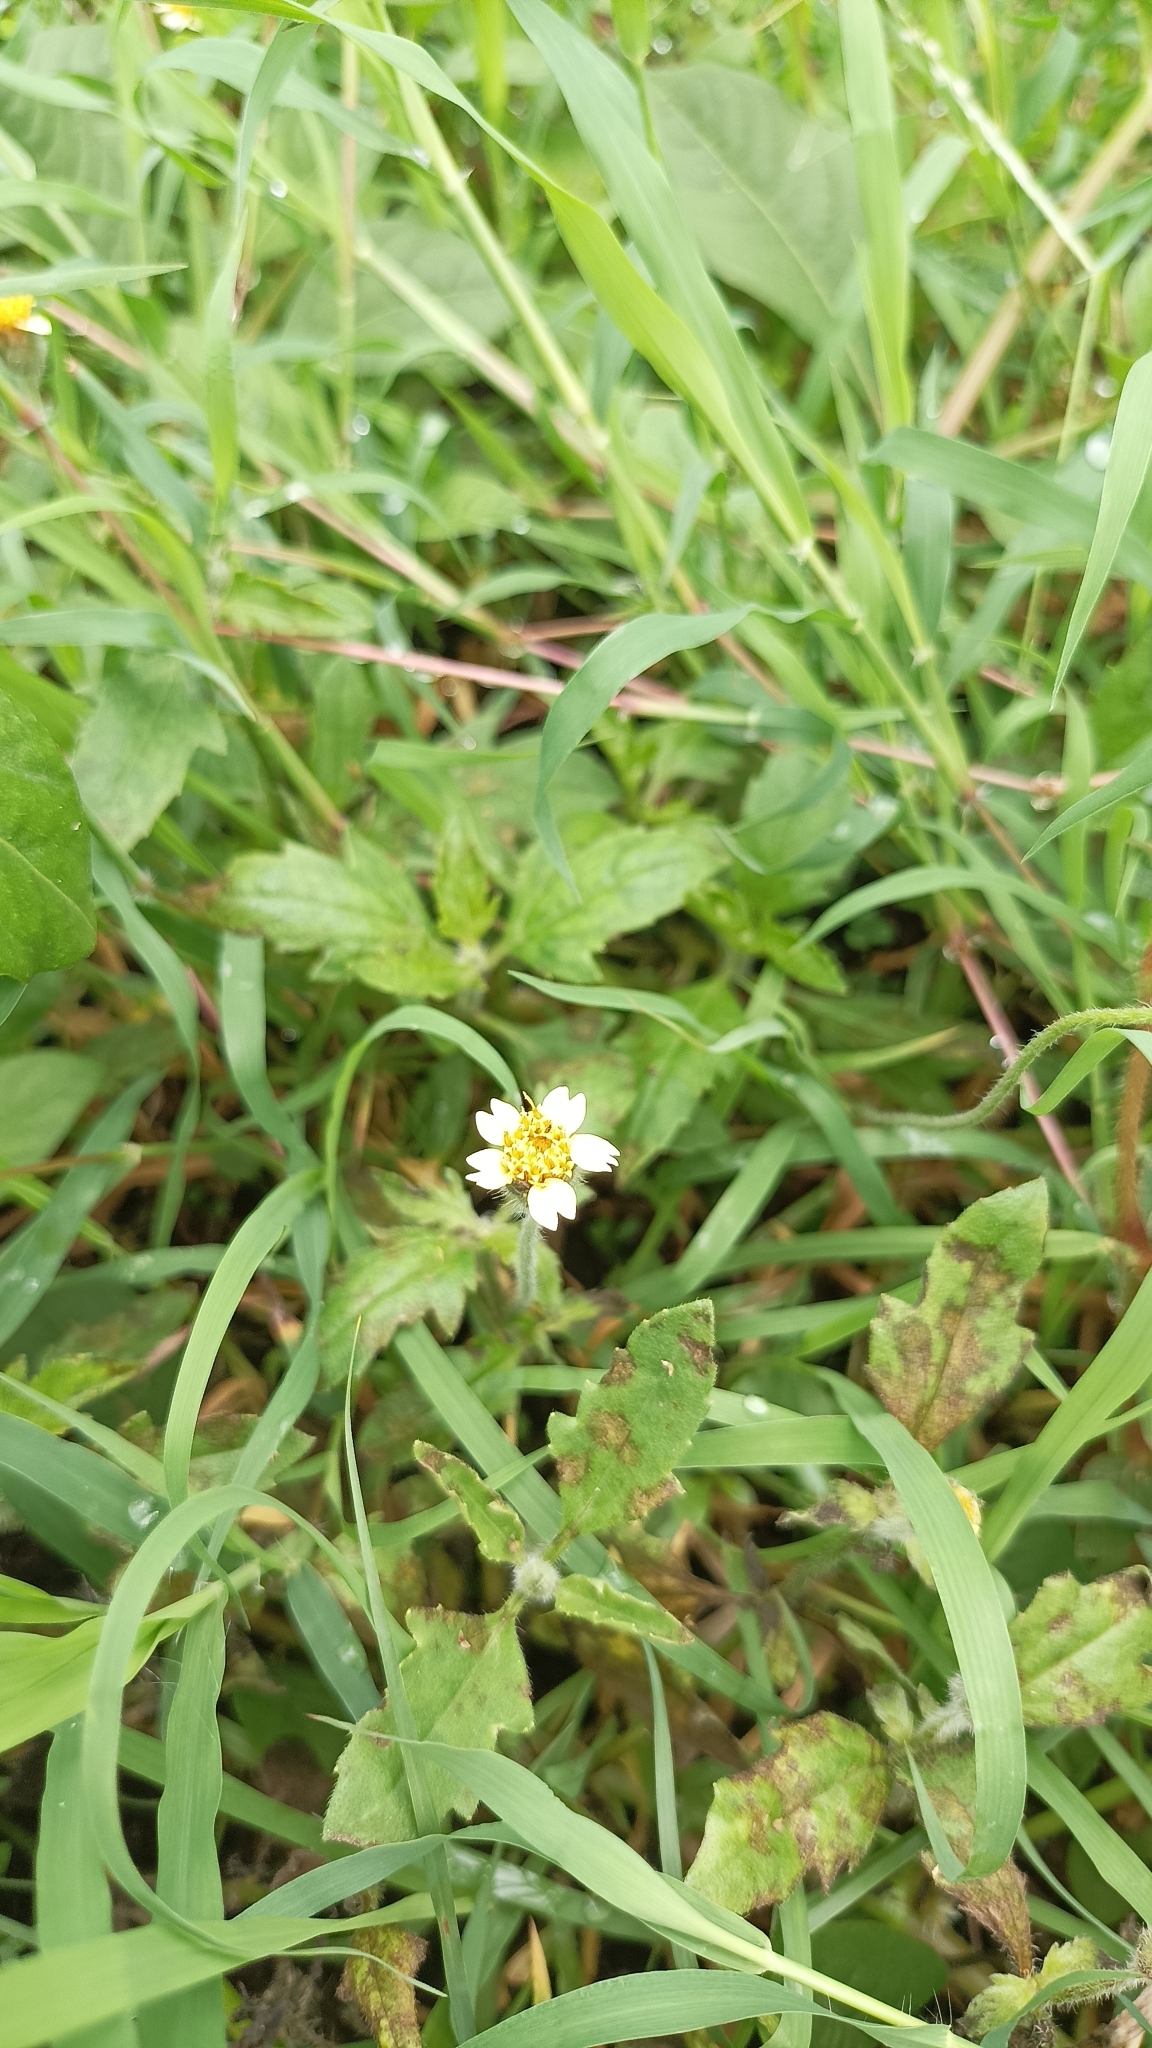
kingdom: Plantae
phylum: Tracheophyta
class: Magnoliopsida
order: Asterales
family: Asteraceae
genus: Tridax
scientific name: Tridax procumbens
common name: Coatbuttons
